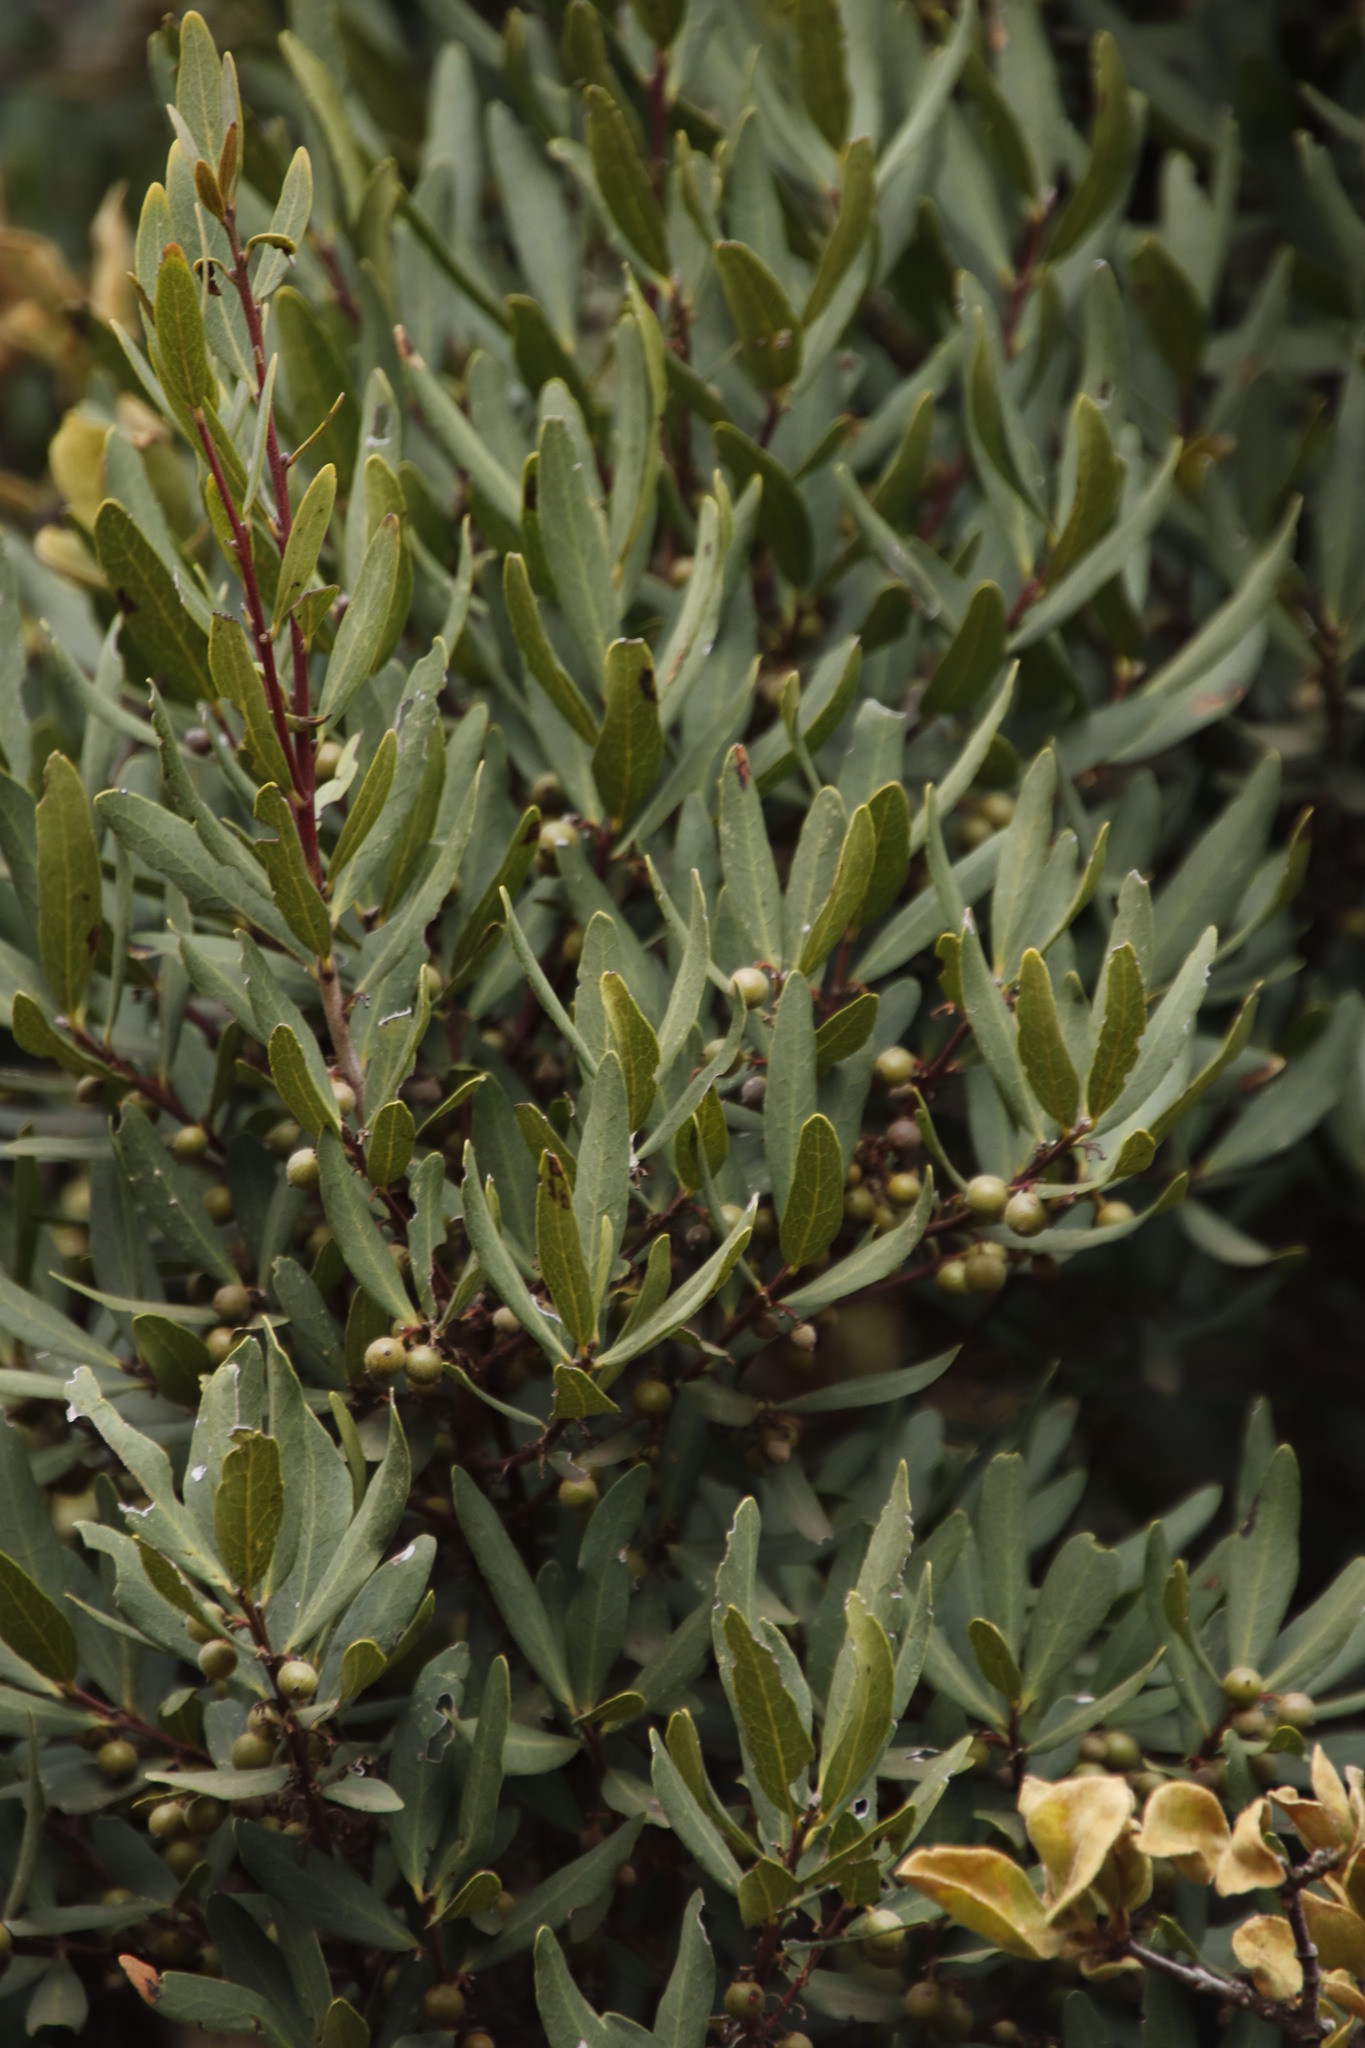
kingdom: Plantae
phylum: Tracheophyta
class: Magnoliopsida
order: Ericales
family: Ebenaceae
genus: Euclea
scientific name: Euclea crispa
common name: Blue guarri
